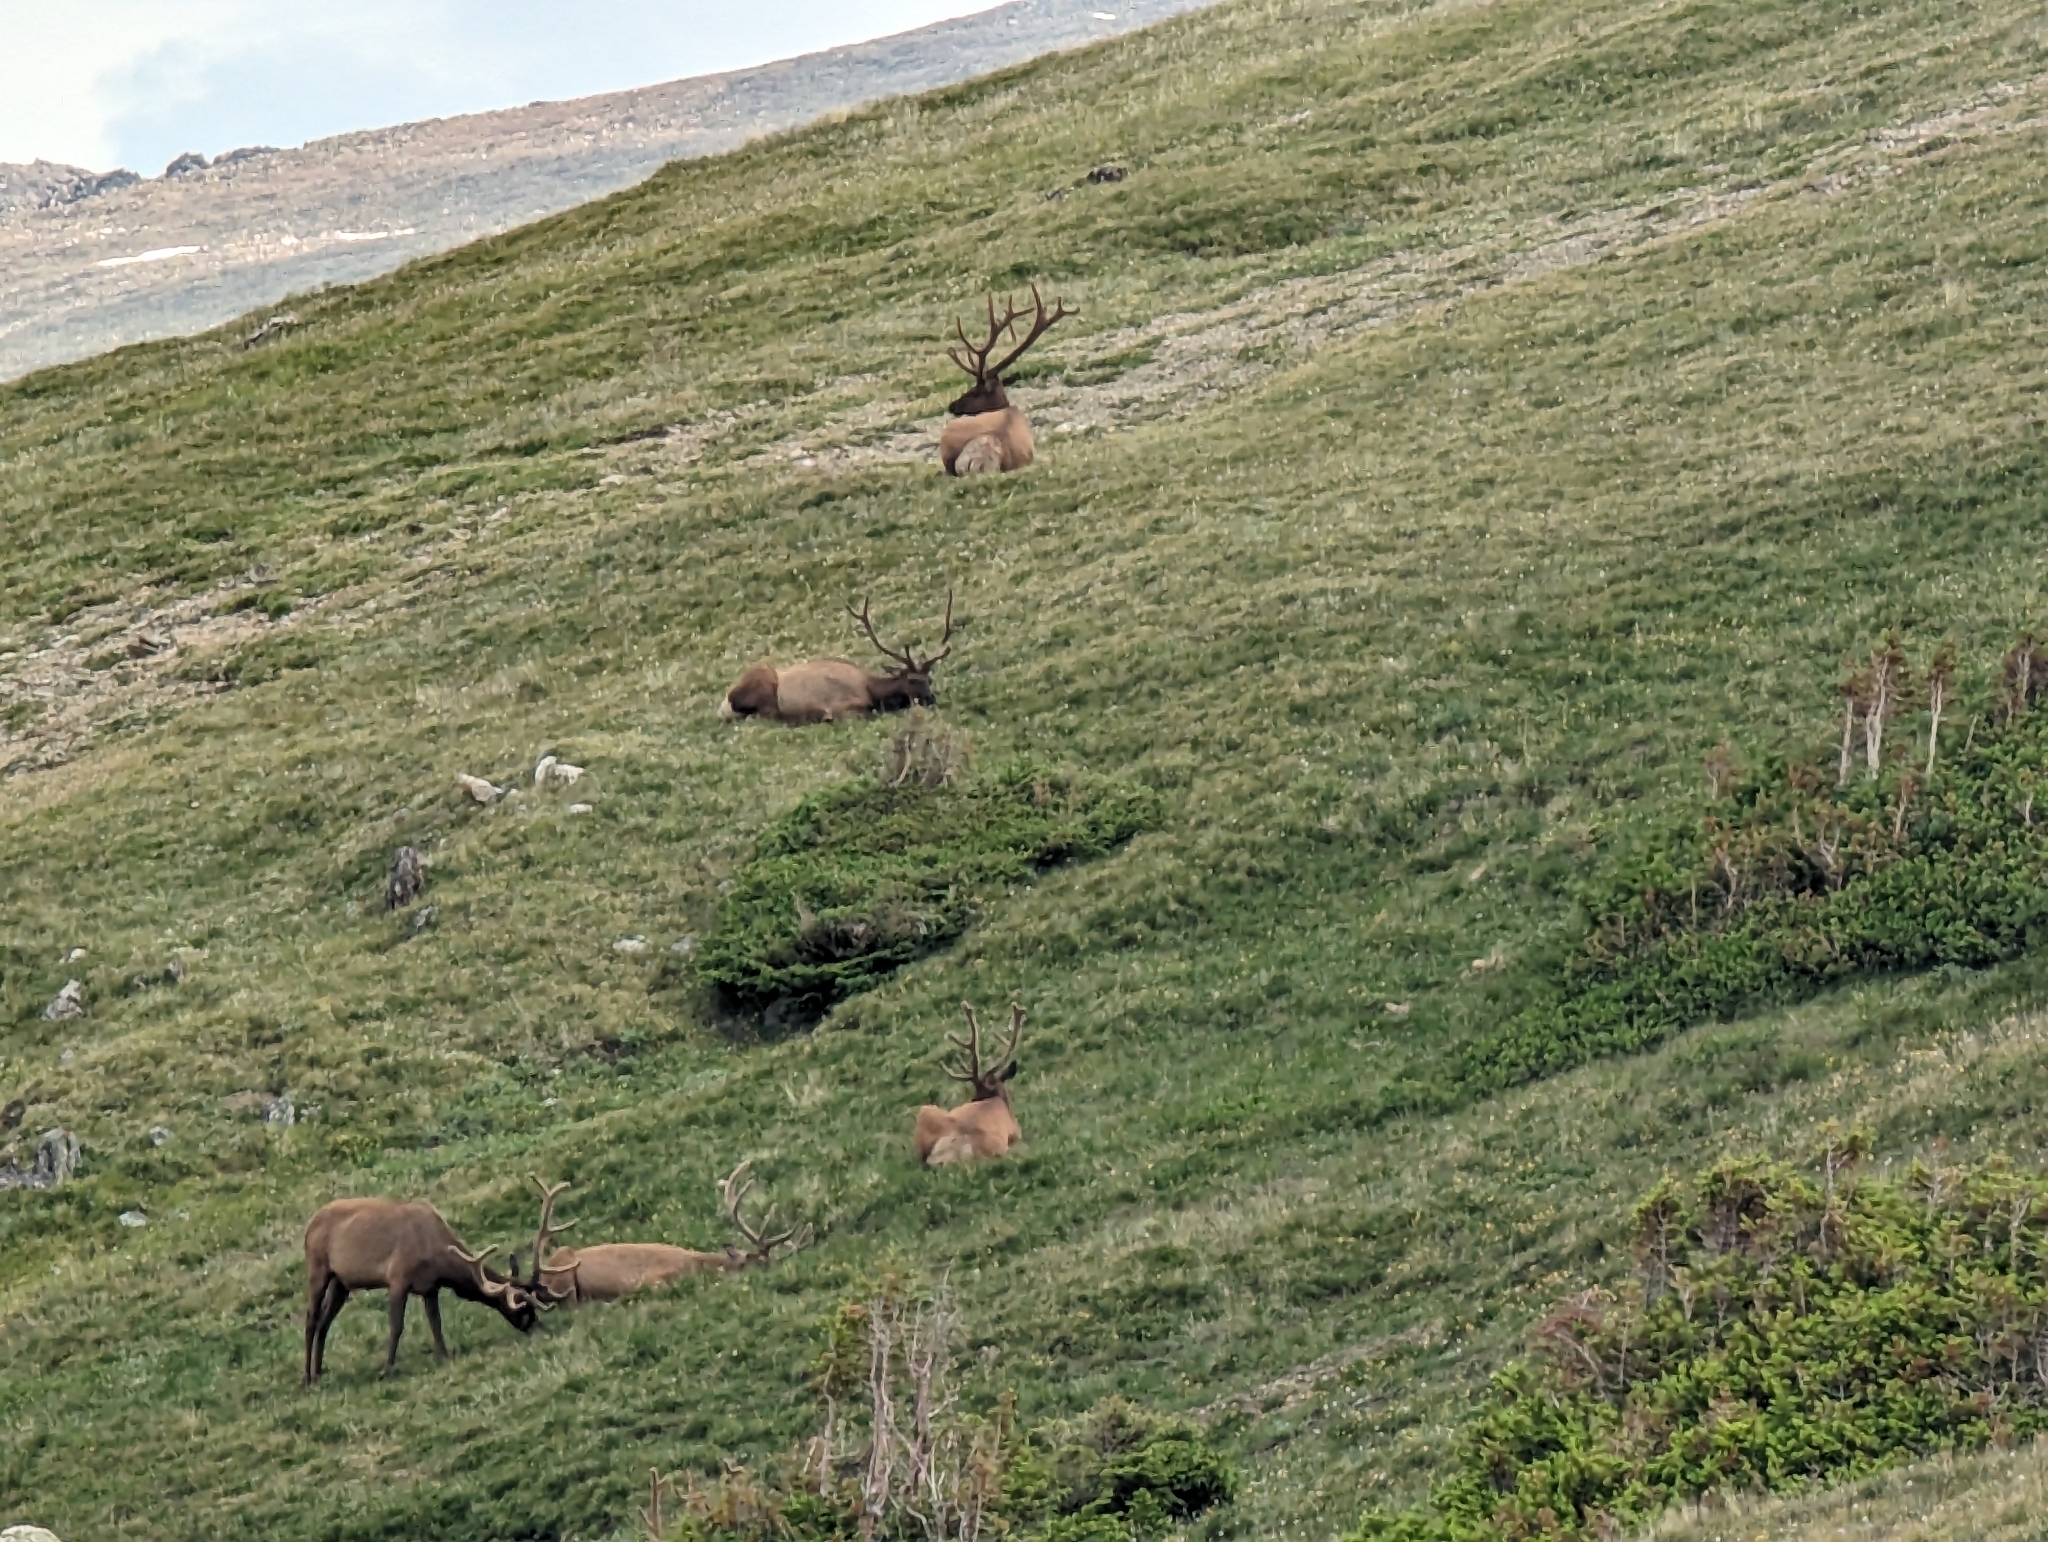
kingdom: Animalia
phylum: Chordata
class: Mammalia
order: Artiodactyla
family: Cervidae
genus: Cervus
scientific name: Cervus elaphus
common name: Red deer
